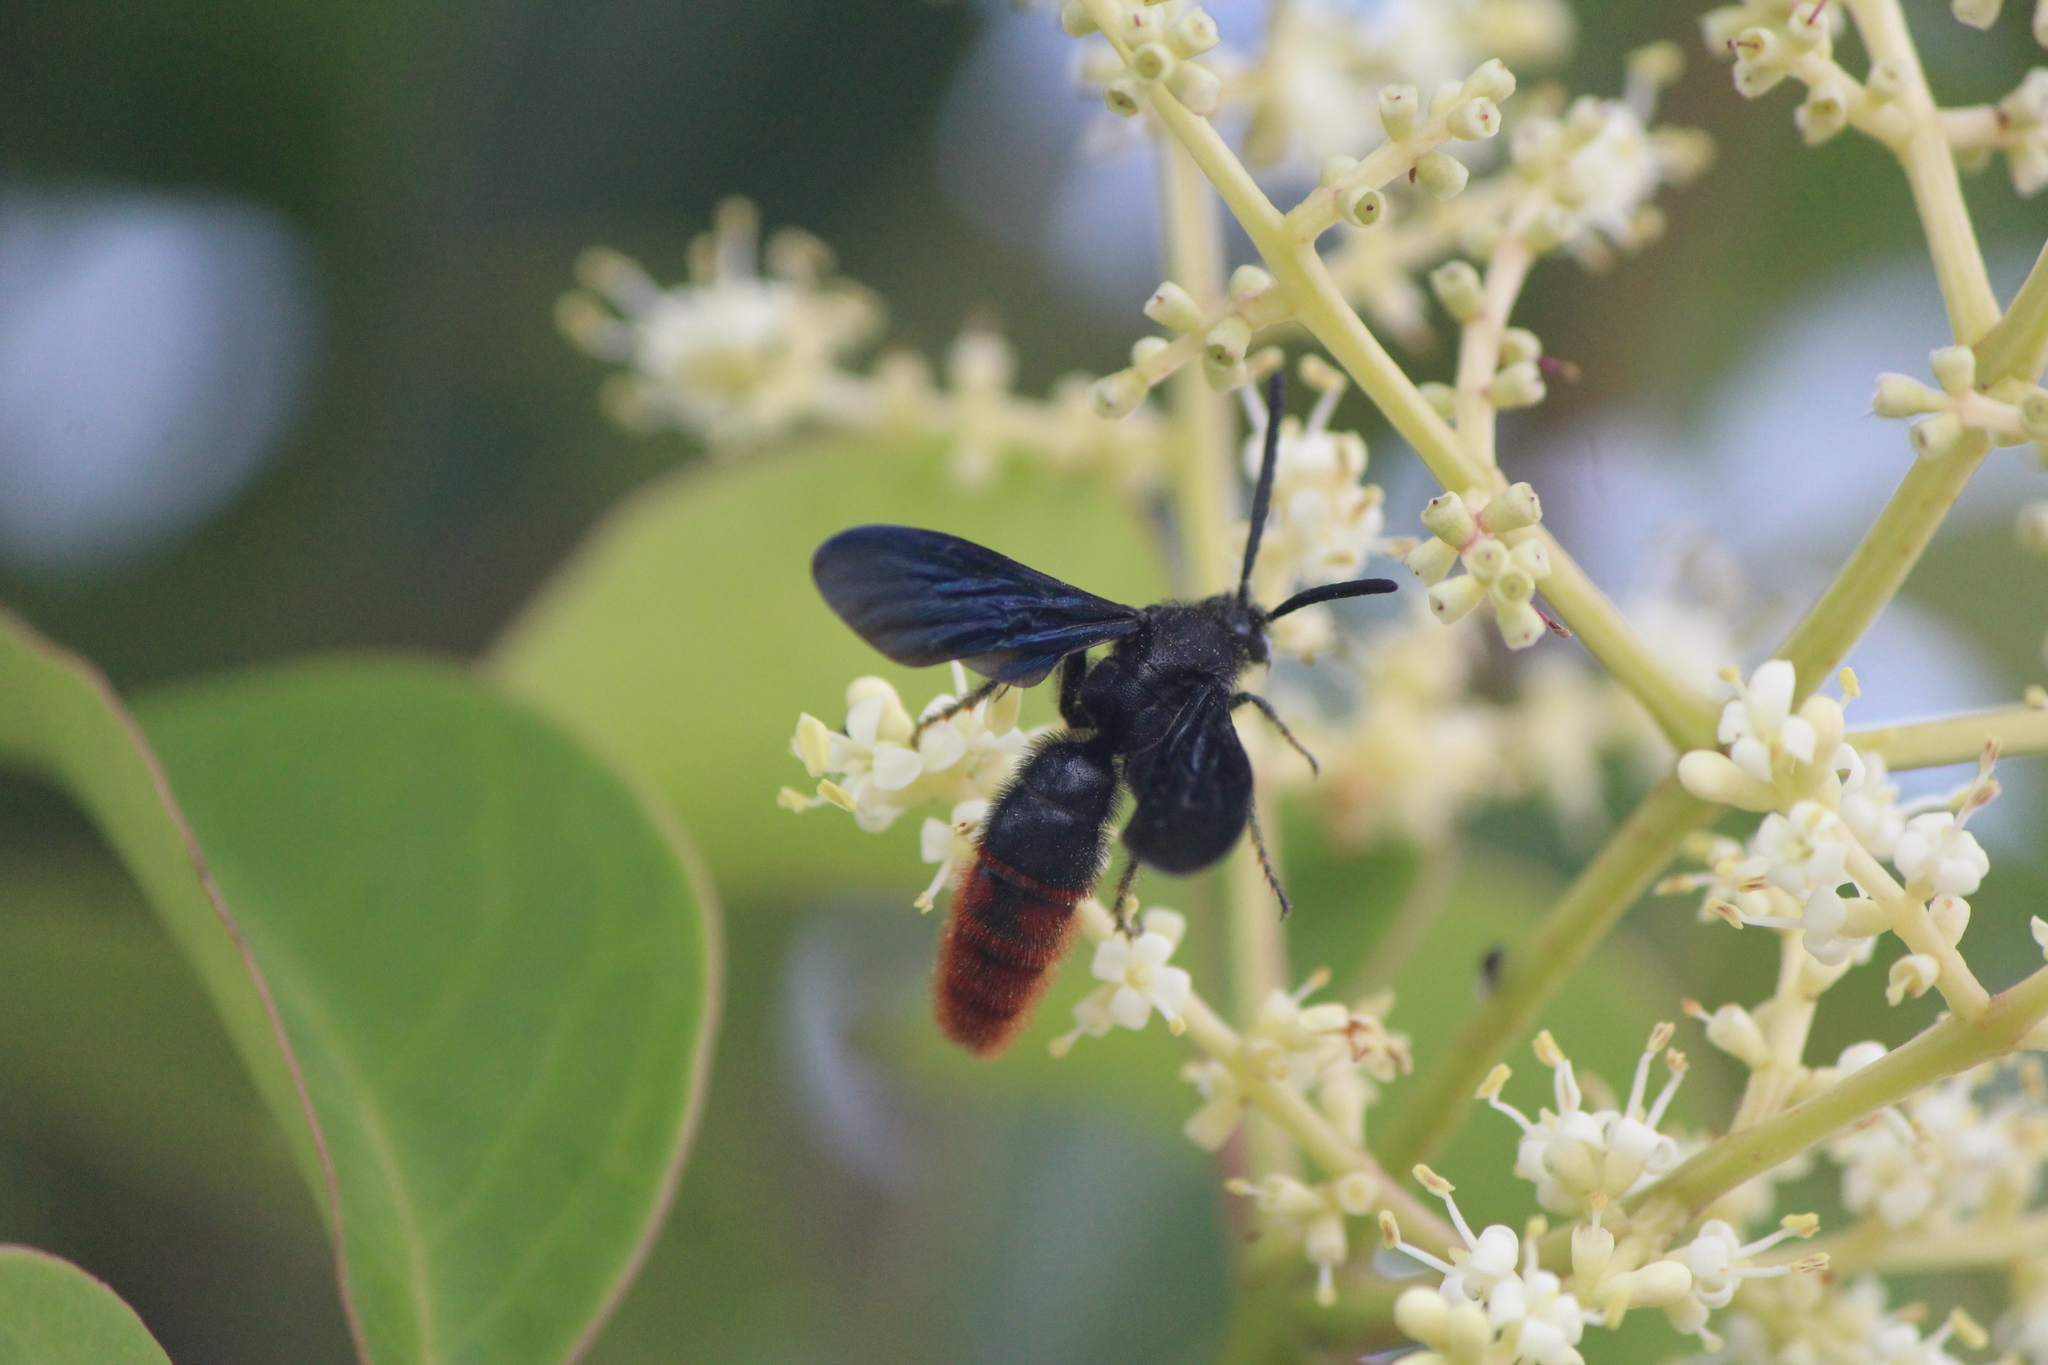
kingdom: Animalia
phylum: Arthropoda
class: Insecta
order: Hymenoptera
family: Scoliidae
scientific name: Scoliidae
